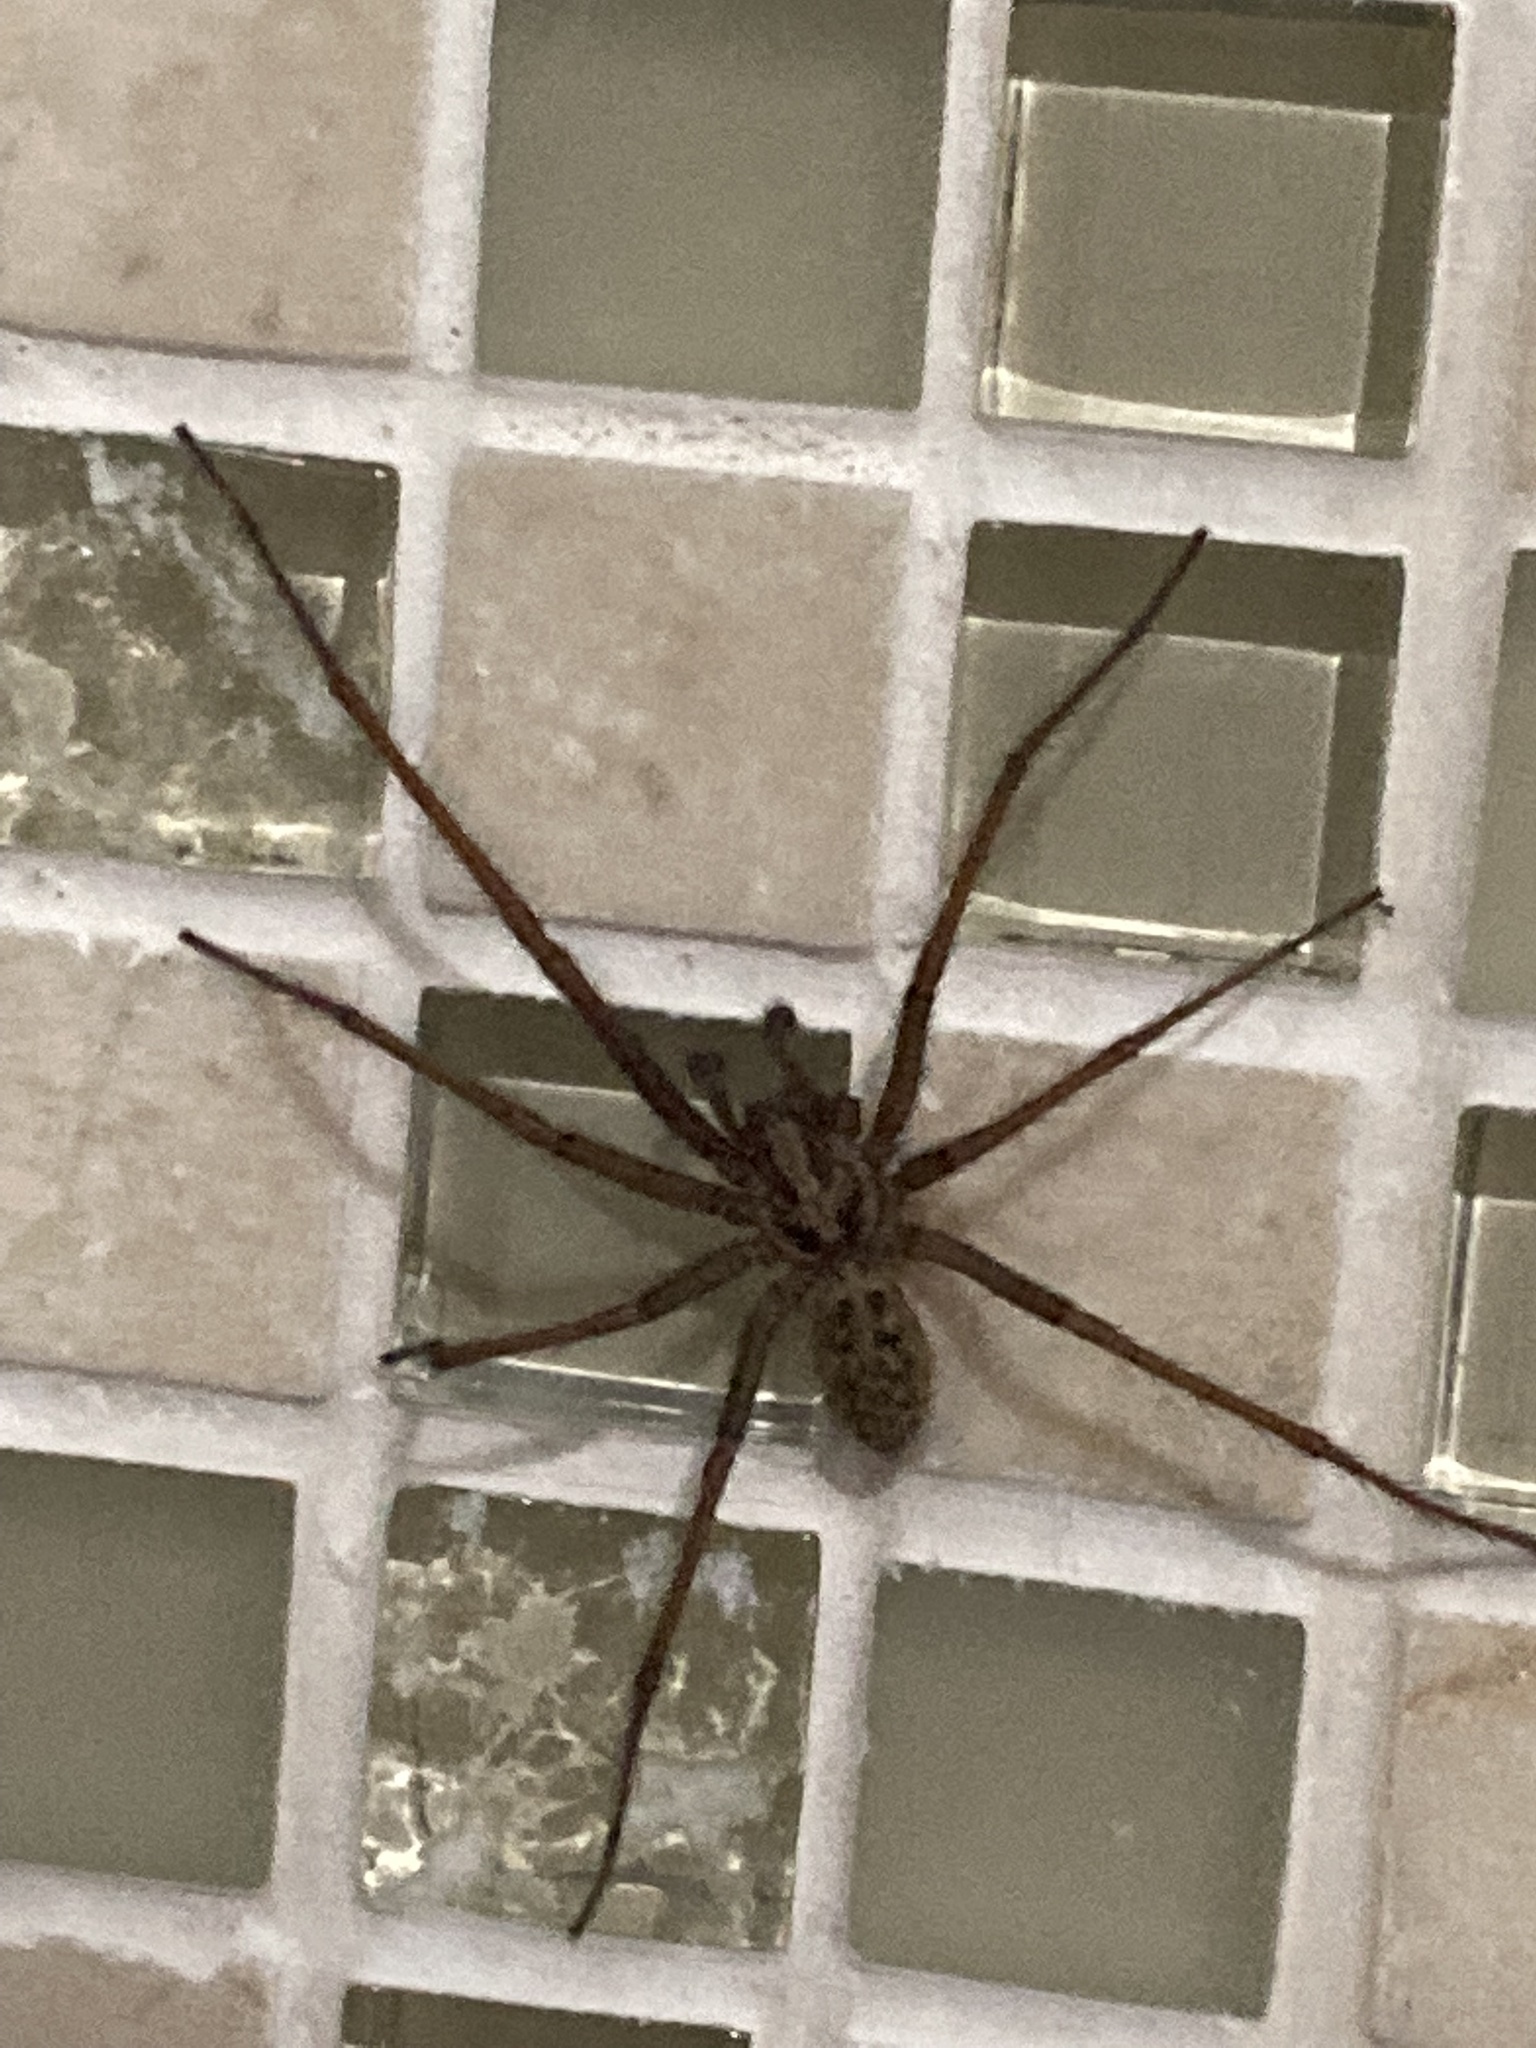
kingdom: Animalia
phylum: Arthropoda
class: Arachnida
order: Araneae
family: Agelenidae
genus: Eratigena
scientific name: Eratigena duellica
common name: Giant house spider
